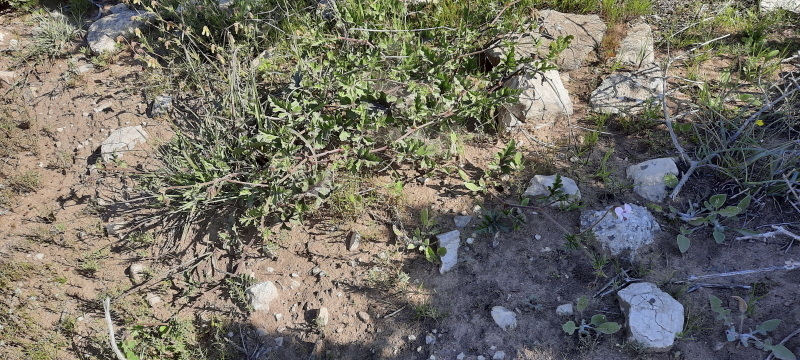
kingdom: Plantae
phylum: Tracheophyta
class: Magnoliopsida
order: Geraniales
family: Geraniaceae
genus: Pelargonium
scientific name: Pelargonium myrrhifolium
